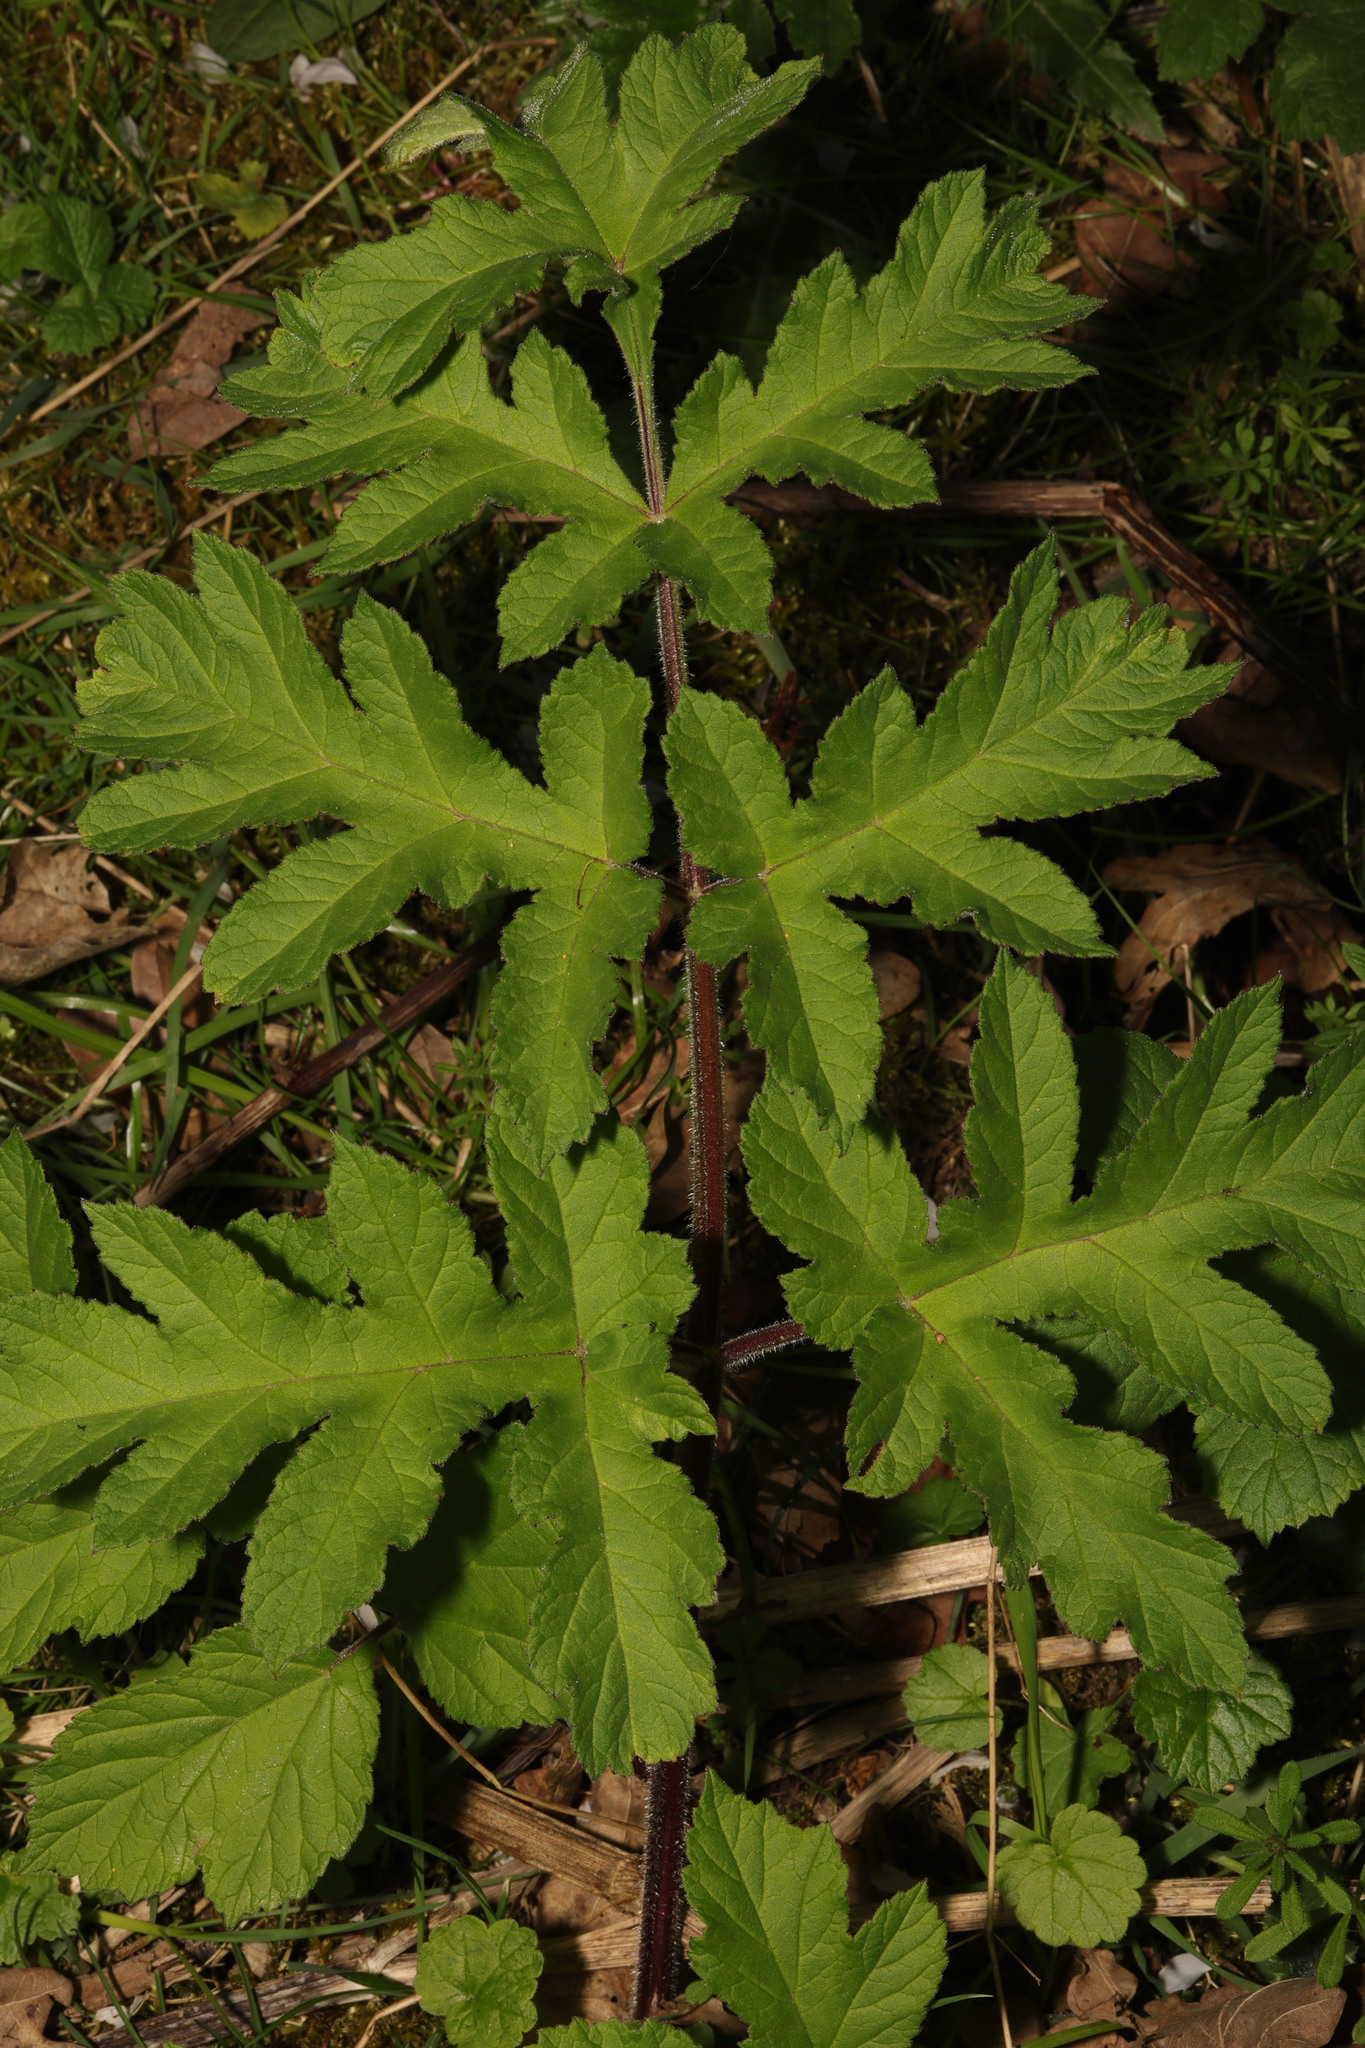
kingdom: Plantae
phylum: Tracheophyta
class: Magnoliopsida
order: Apiales
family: Apiaceae
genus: Heracleum
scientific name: Heracleum sphondylium
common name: Hogweed
